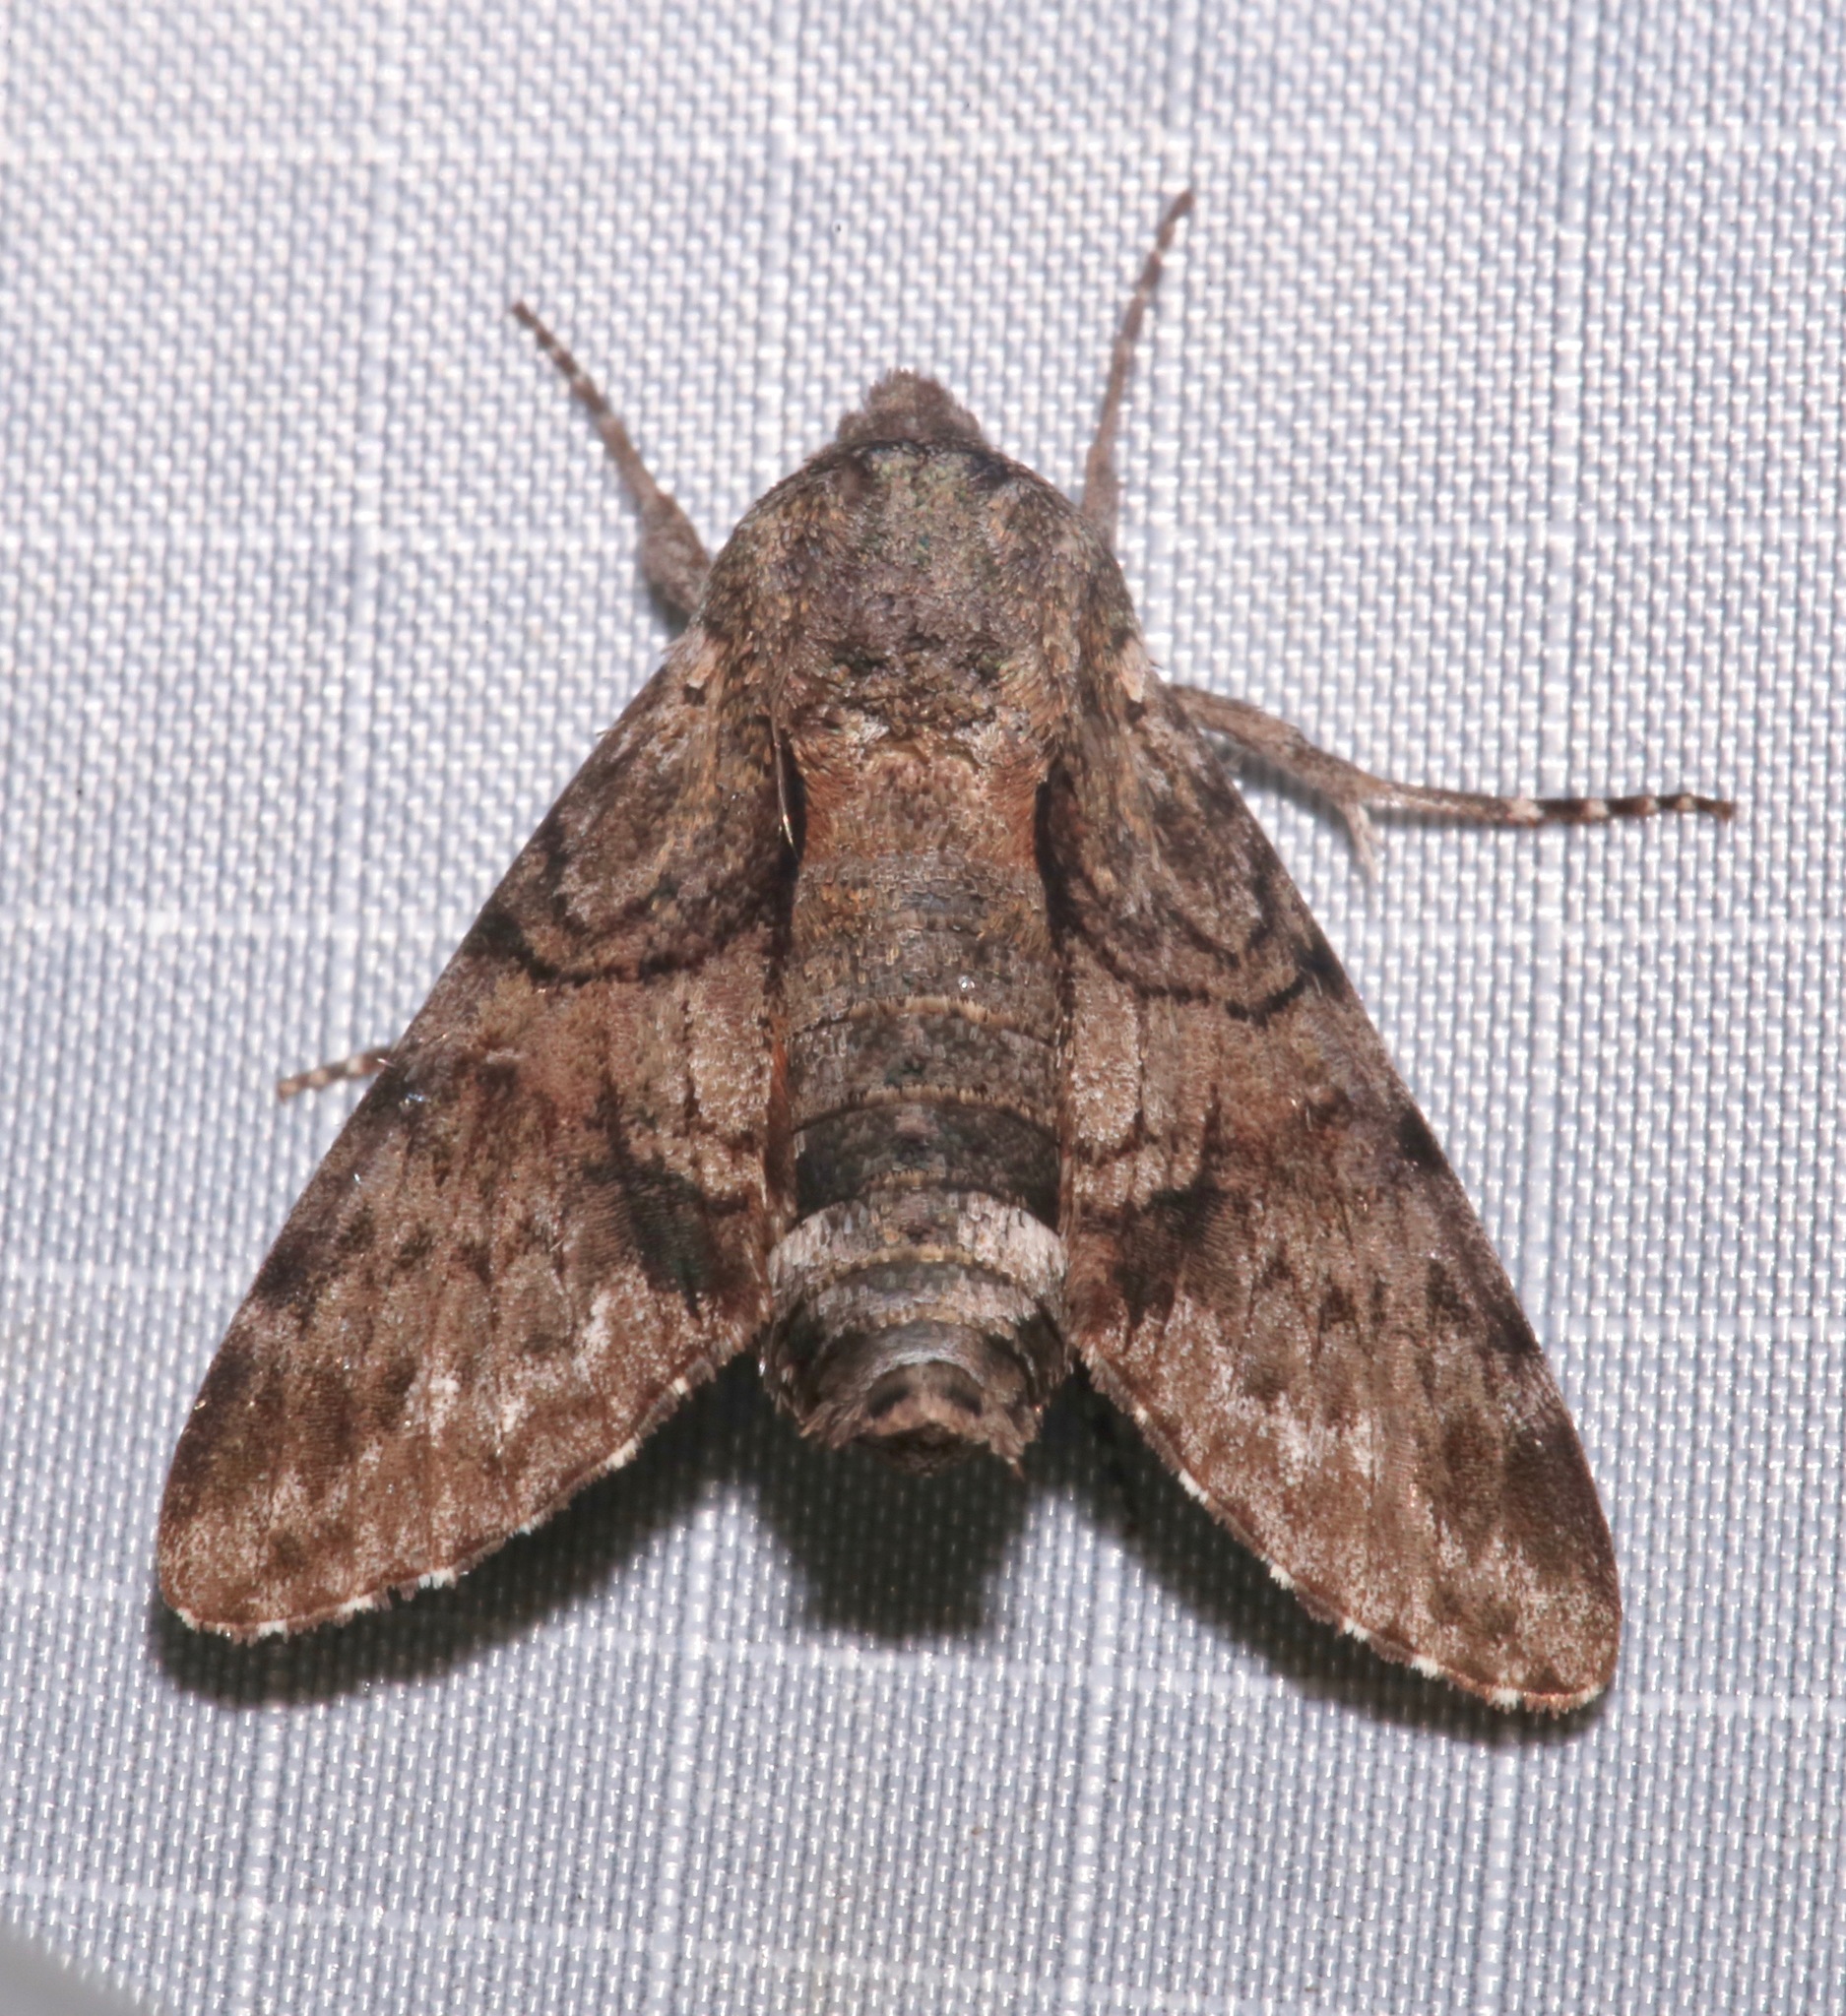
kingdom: Animalia
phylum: Arthropoda
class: Insecta
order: Lepidoptera
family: Sphingidae
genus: Cautethia
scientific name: Cautethia grotei
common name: Grote's sphinx
